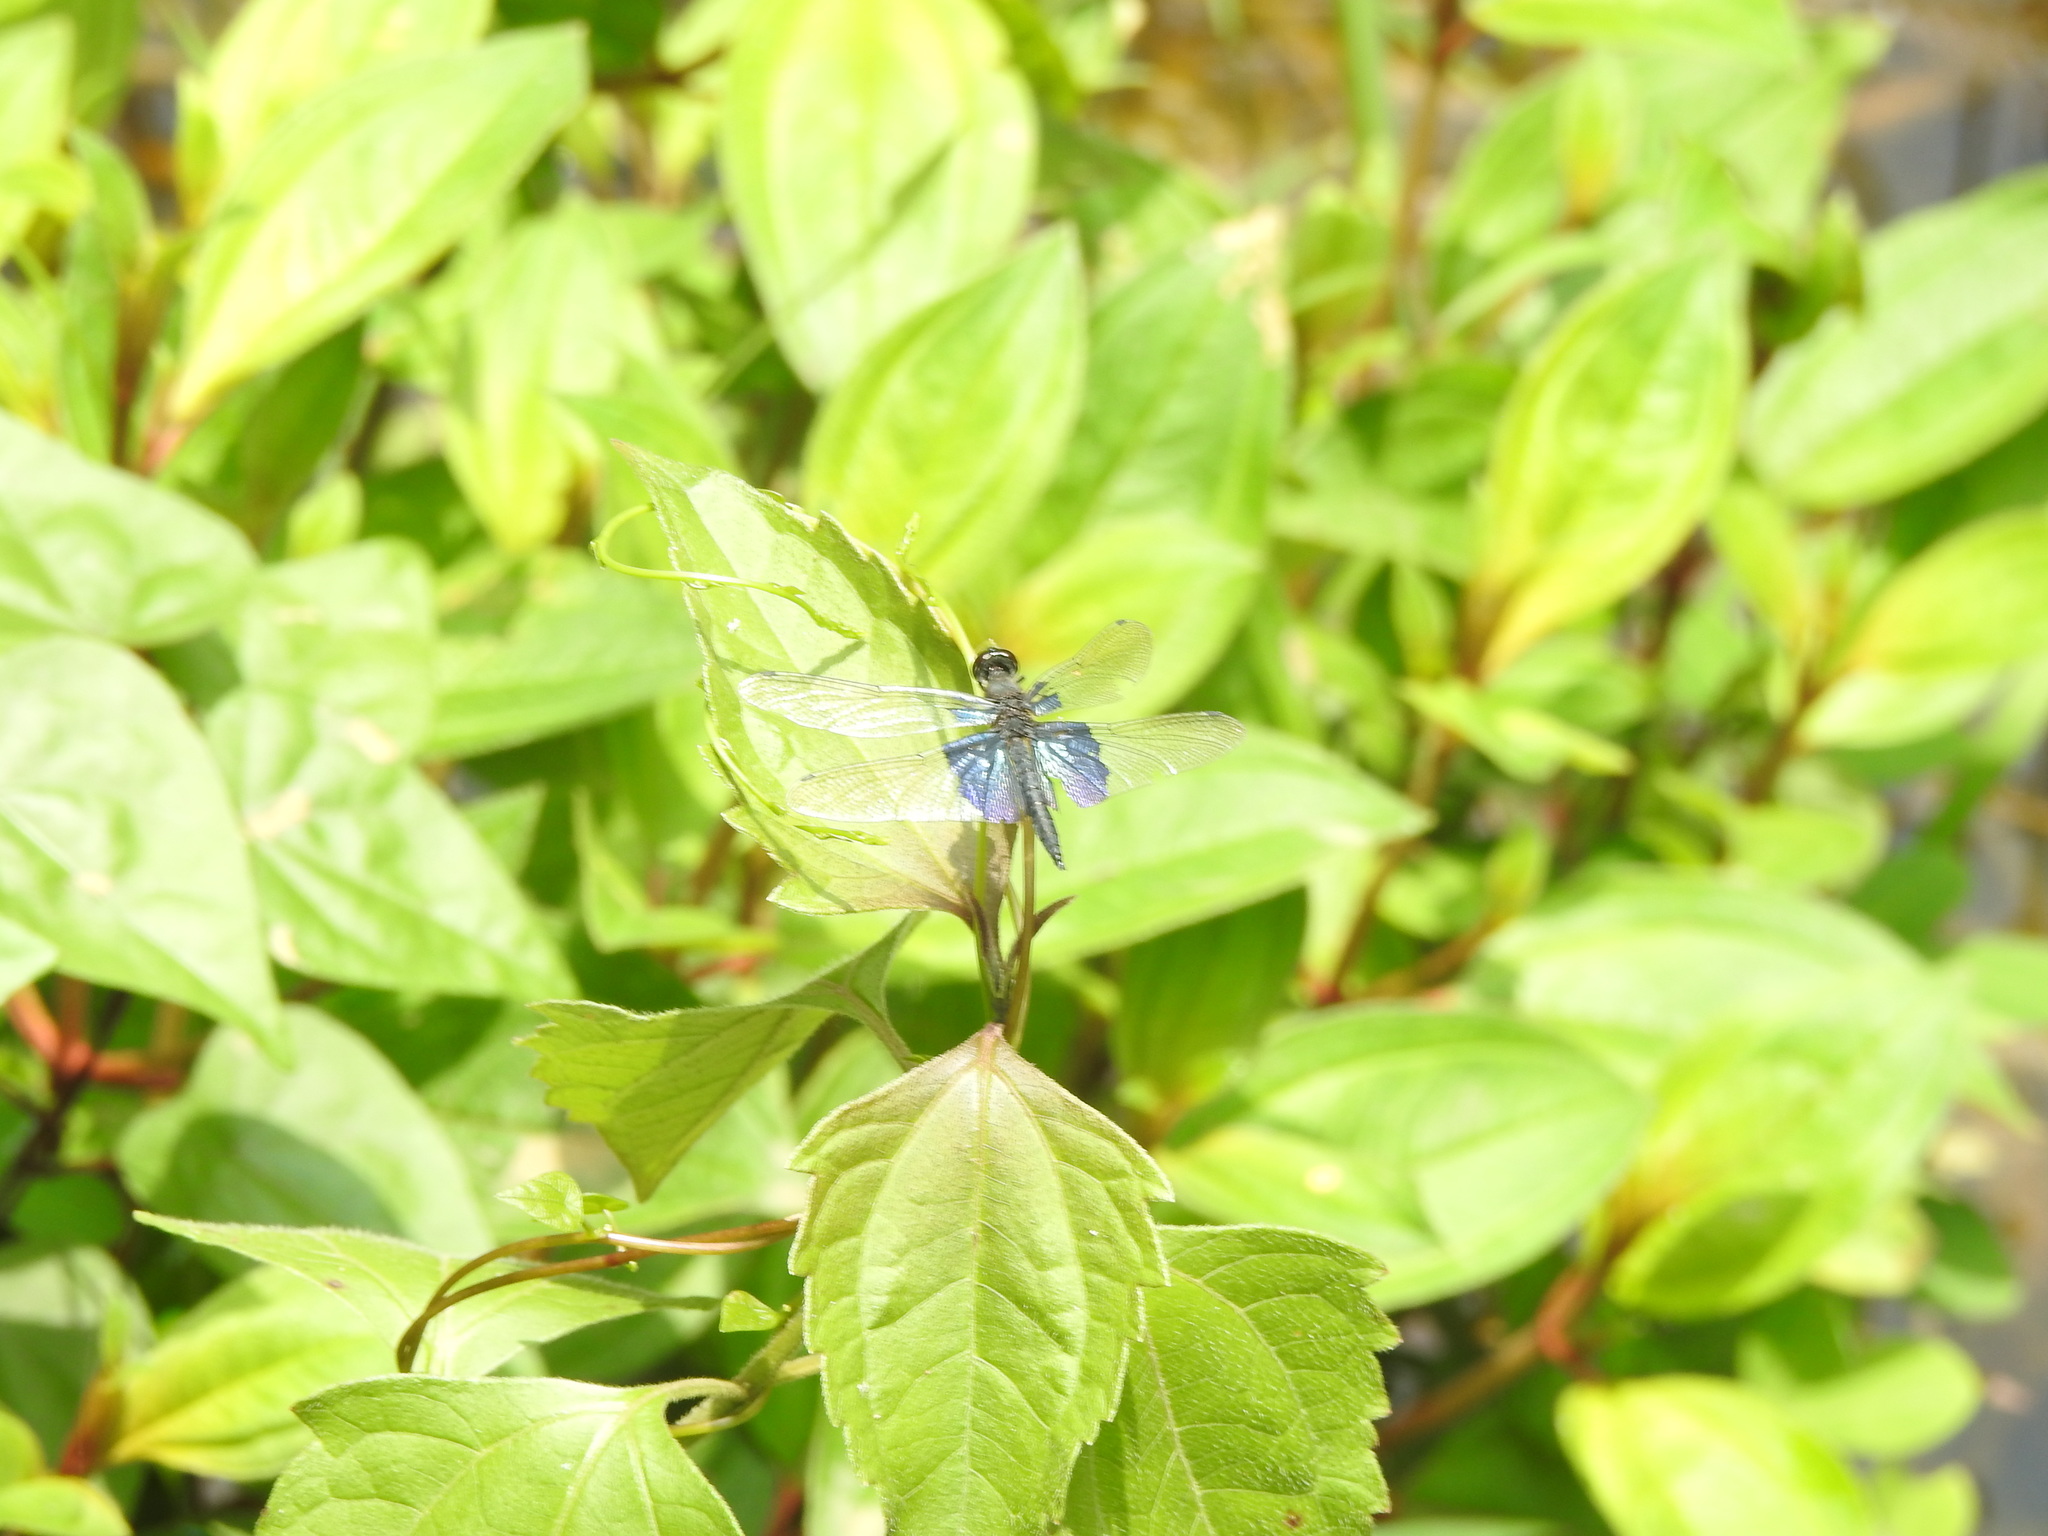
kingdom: Animalia
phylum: Arthropoda
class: Insecta
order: Odonata
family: Libellulidae
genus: Rhyothemis
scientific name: Rhyothemis triangularis
